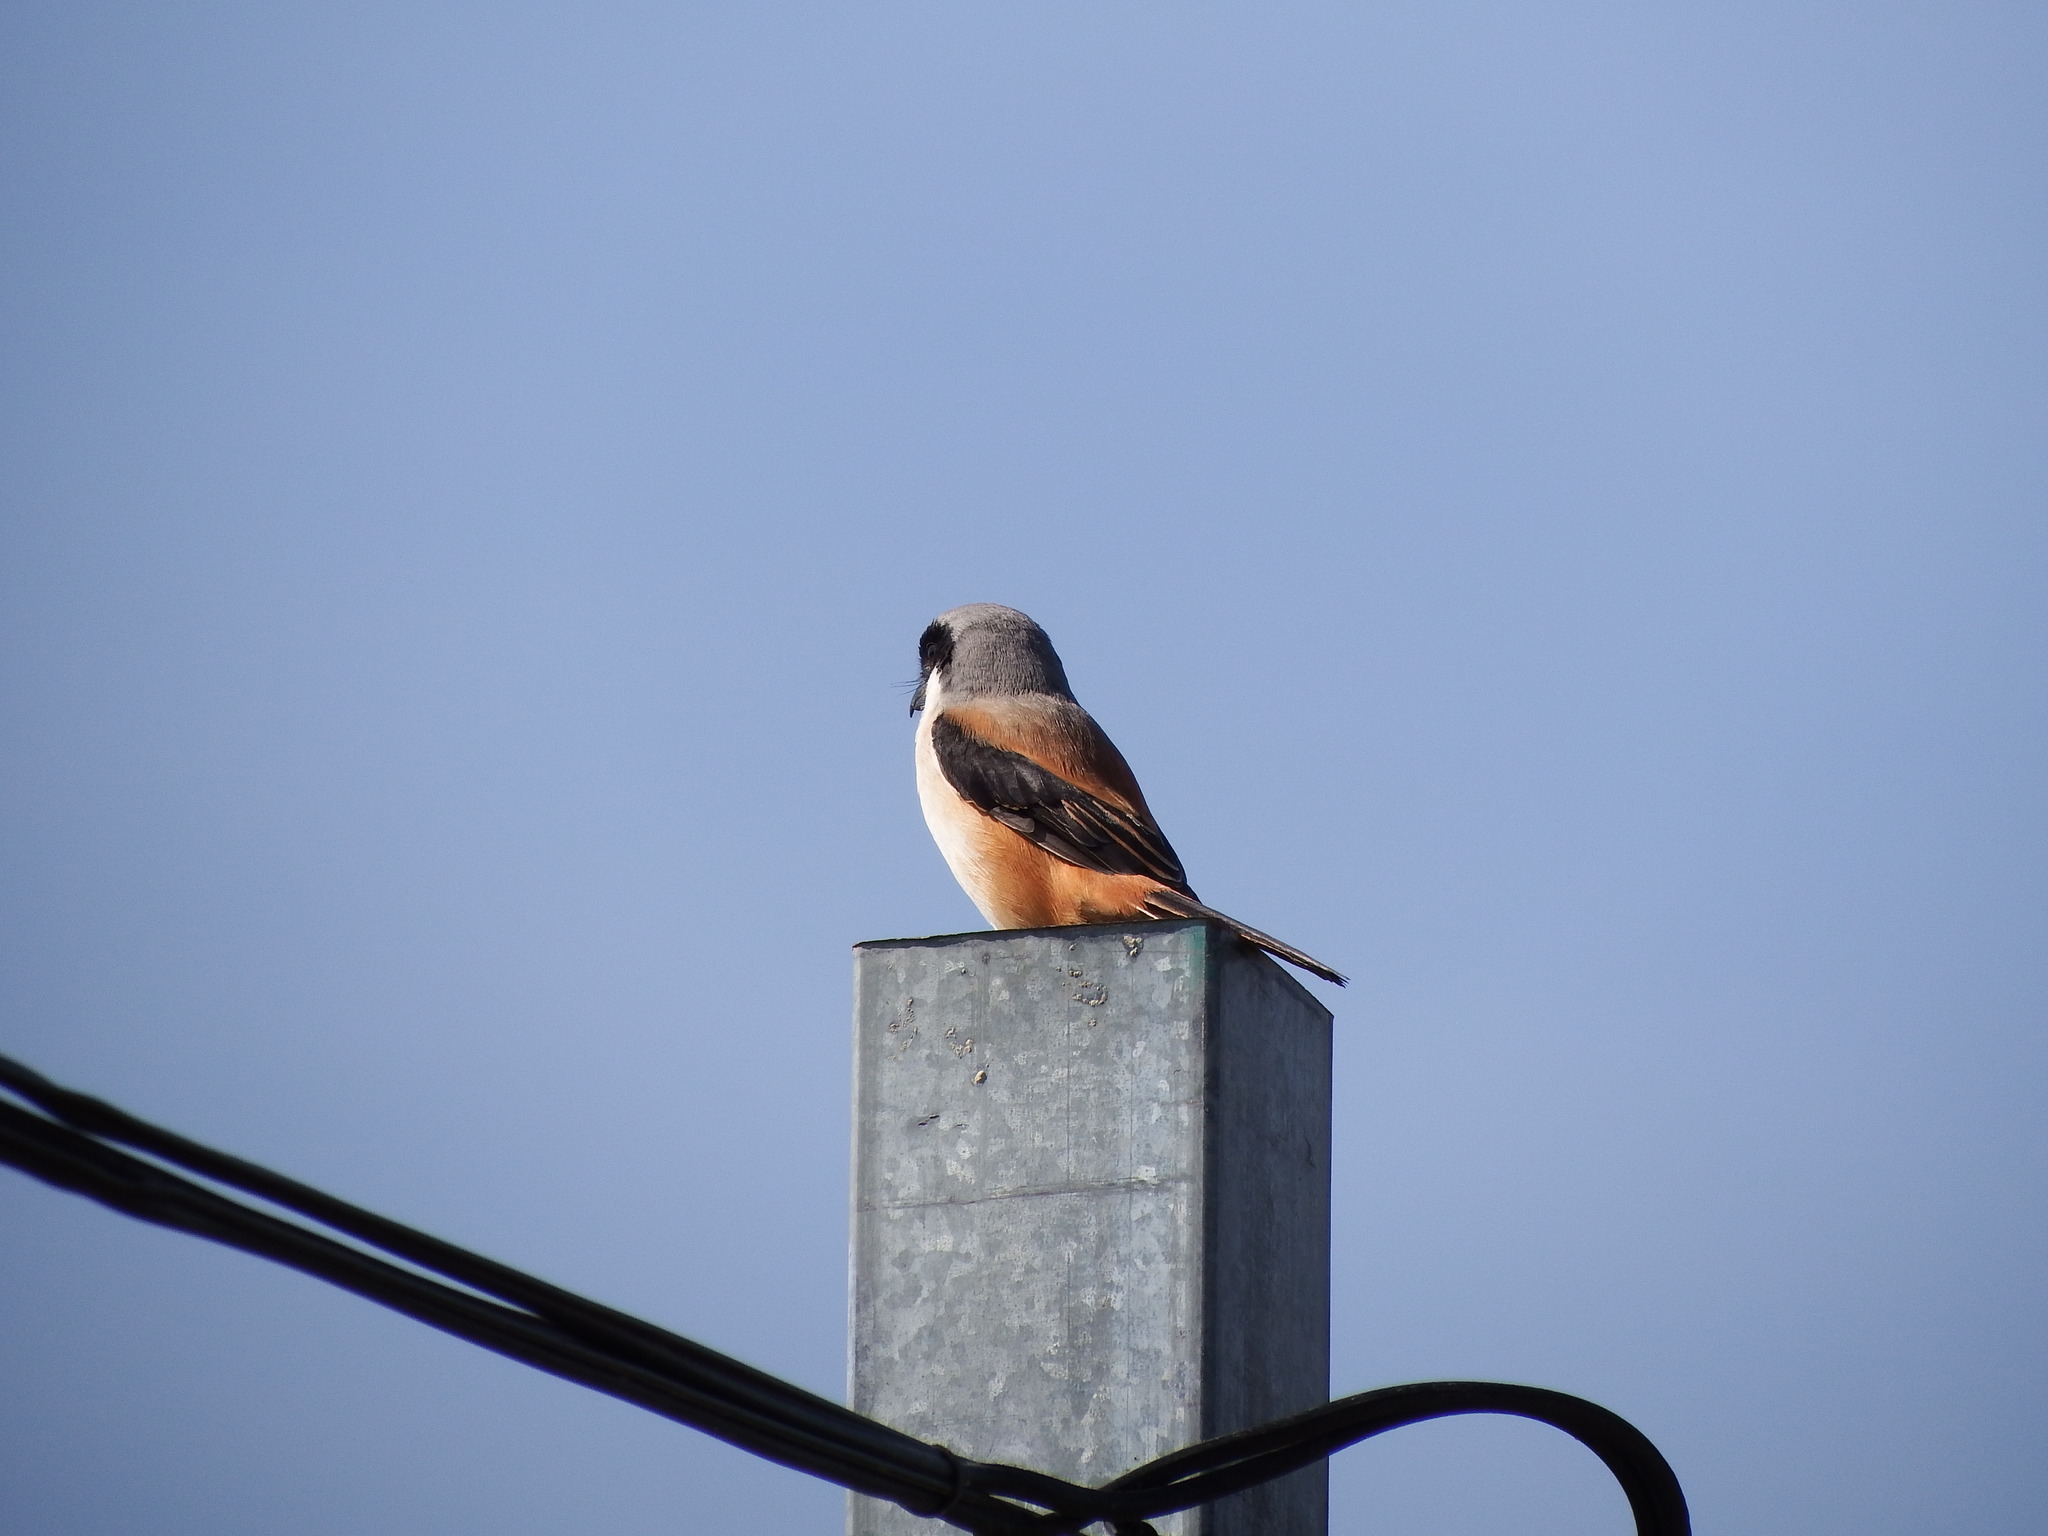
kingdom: Animalia
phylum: Chordata
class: Aves
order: Passeriformes
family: Laniidae
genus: Lanius
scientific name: Lanius schach
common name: Long-tailed shrike
